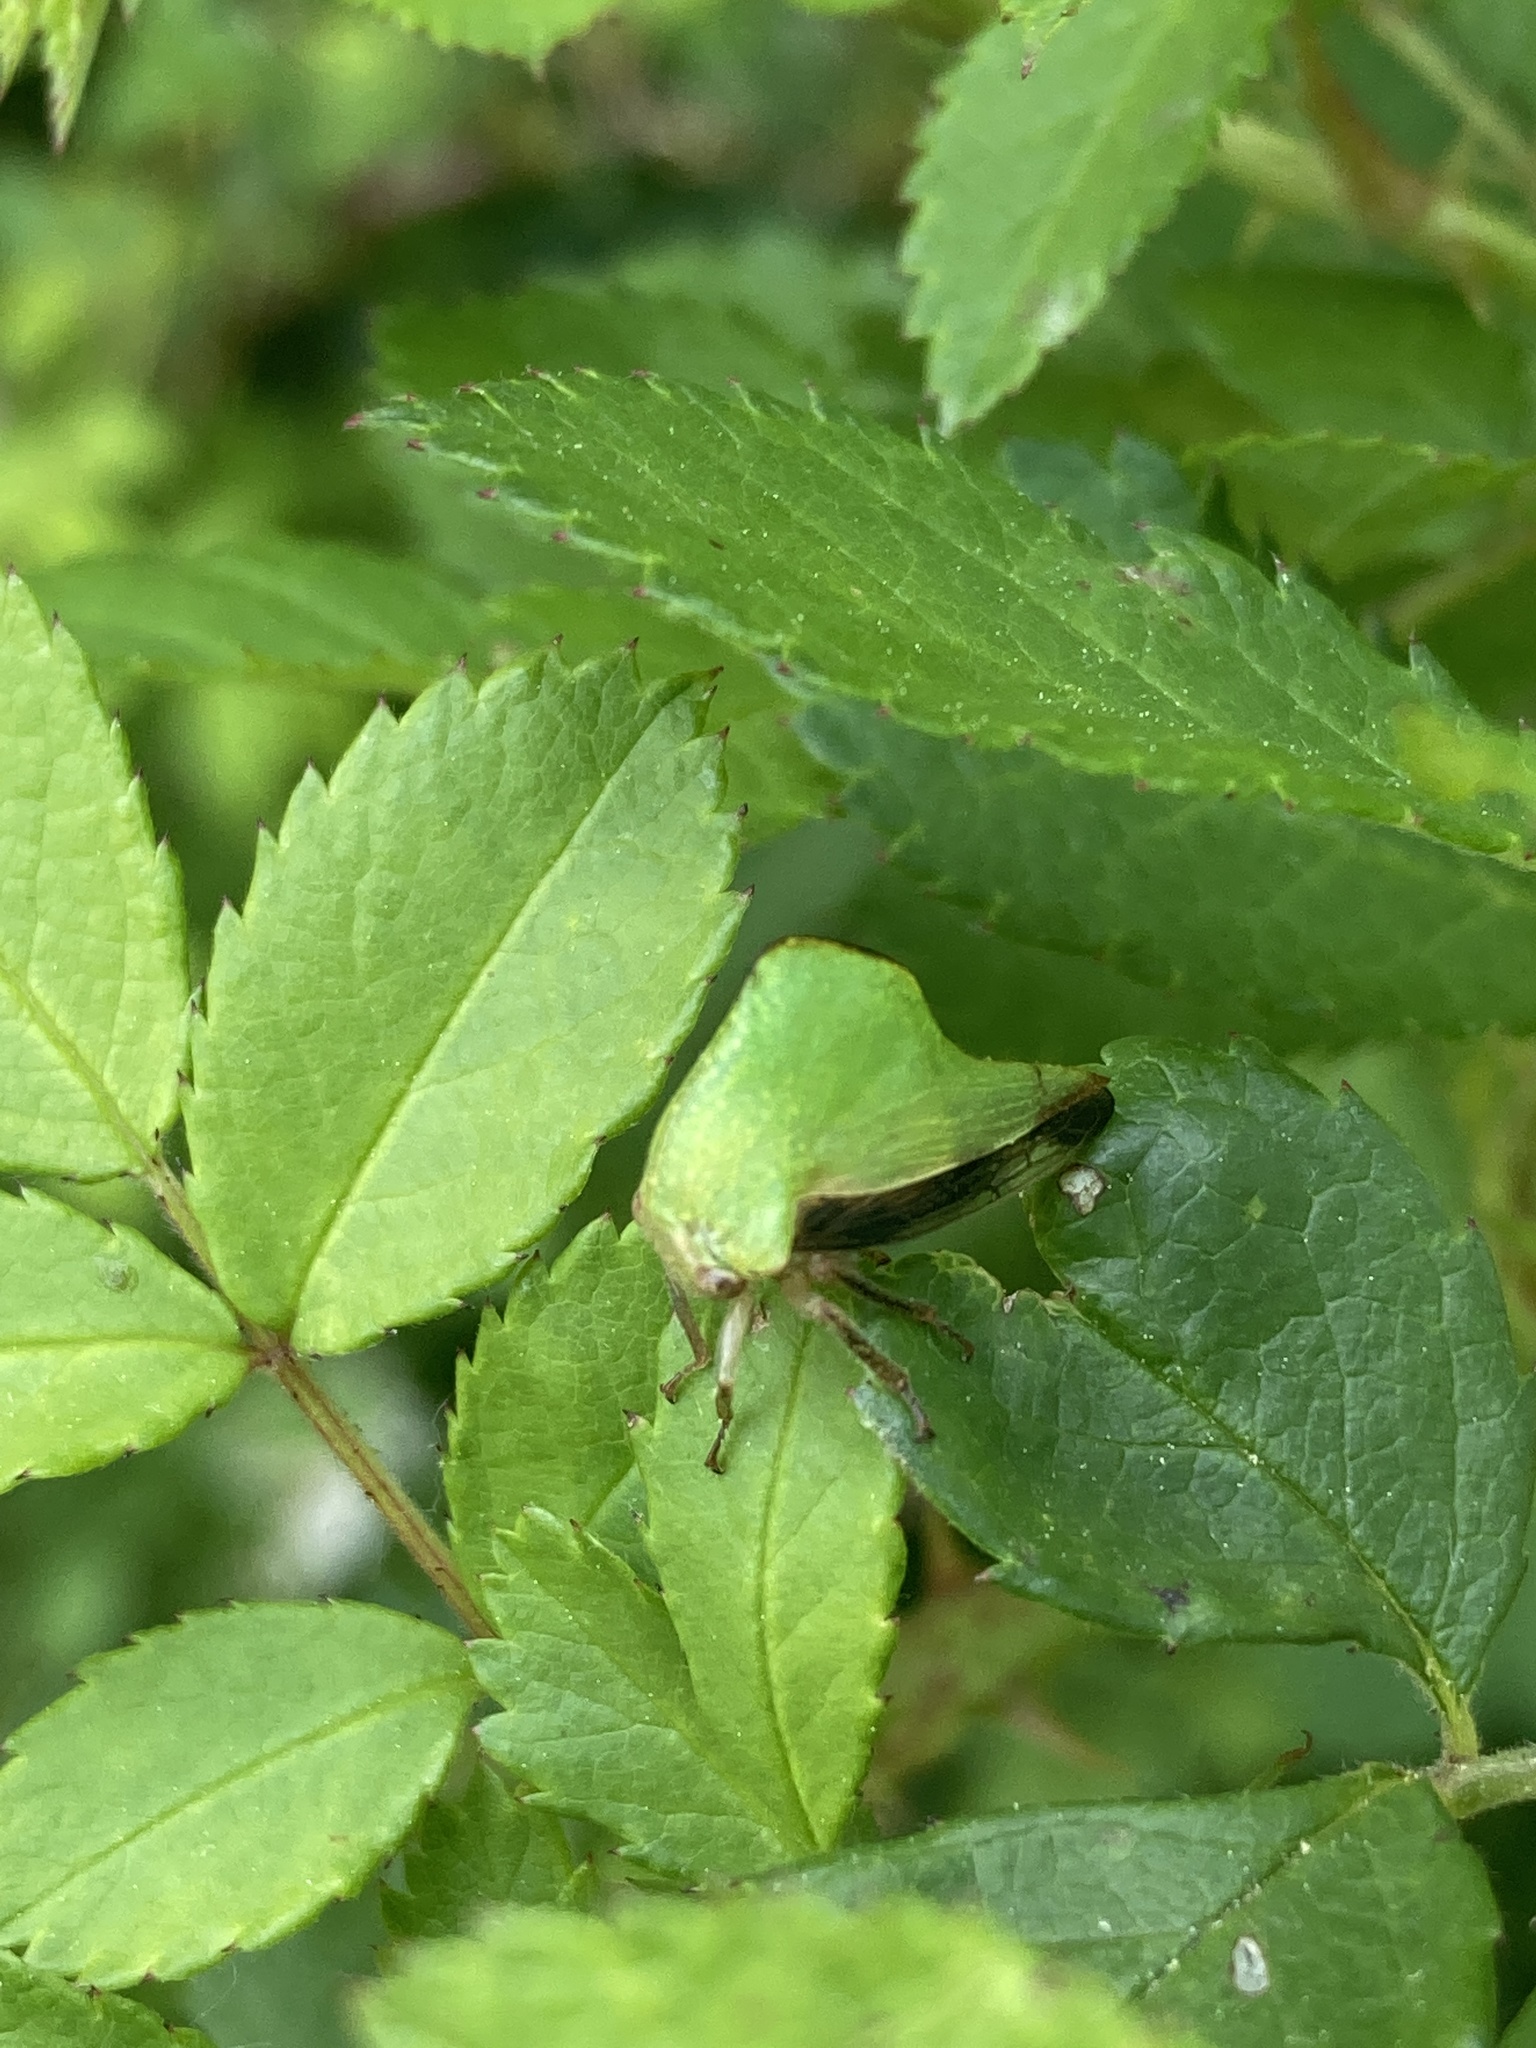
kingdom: Animalia
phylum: Arthropoda
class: Insecta
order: Hemiptera
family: Membracidae
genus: Helonica
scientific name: Helonica excelsa
